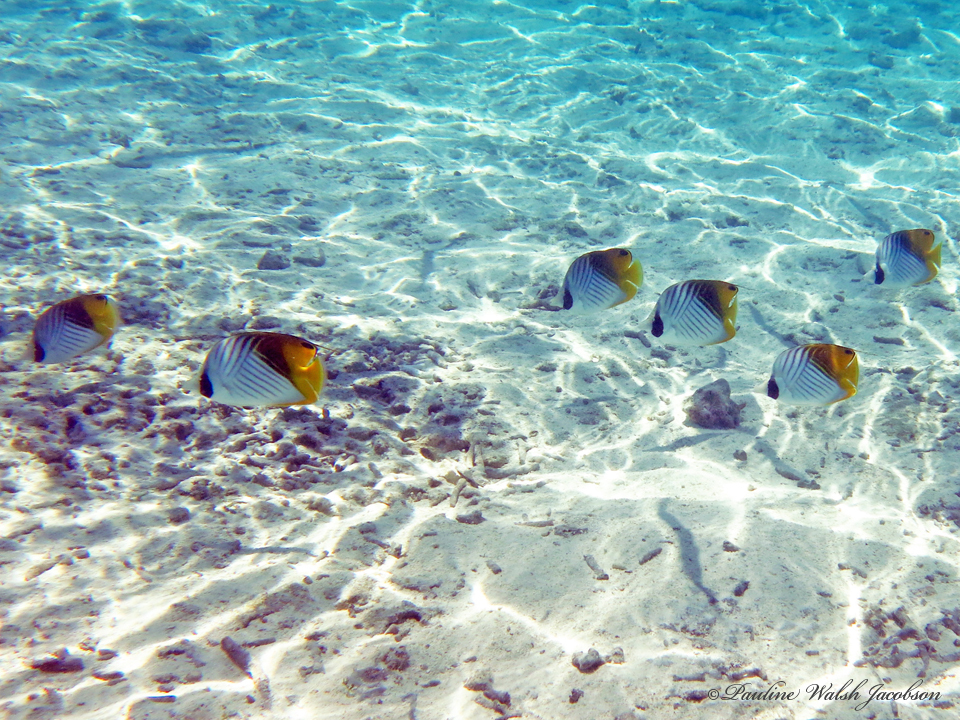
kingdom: Animalia
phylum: Chordata
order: Perciformes
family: Chaetodontidae
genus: Chaetodon
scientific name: Chaetodon auriga
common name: Threadfin butterflyfish
